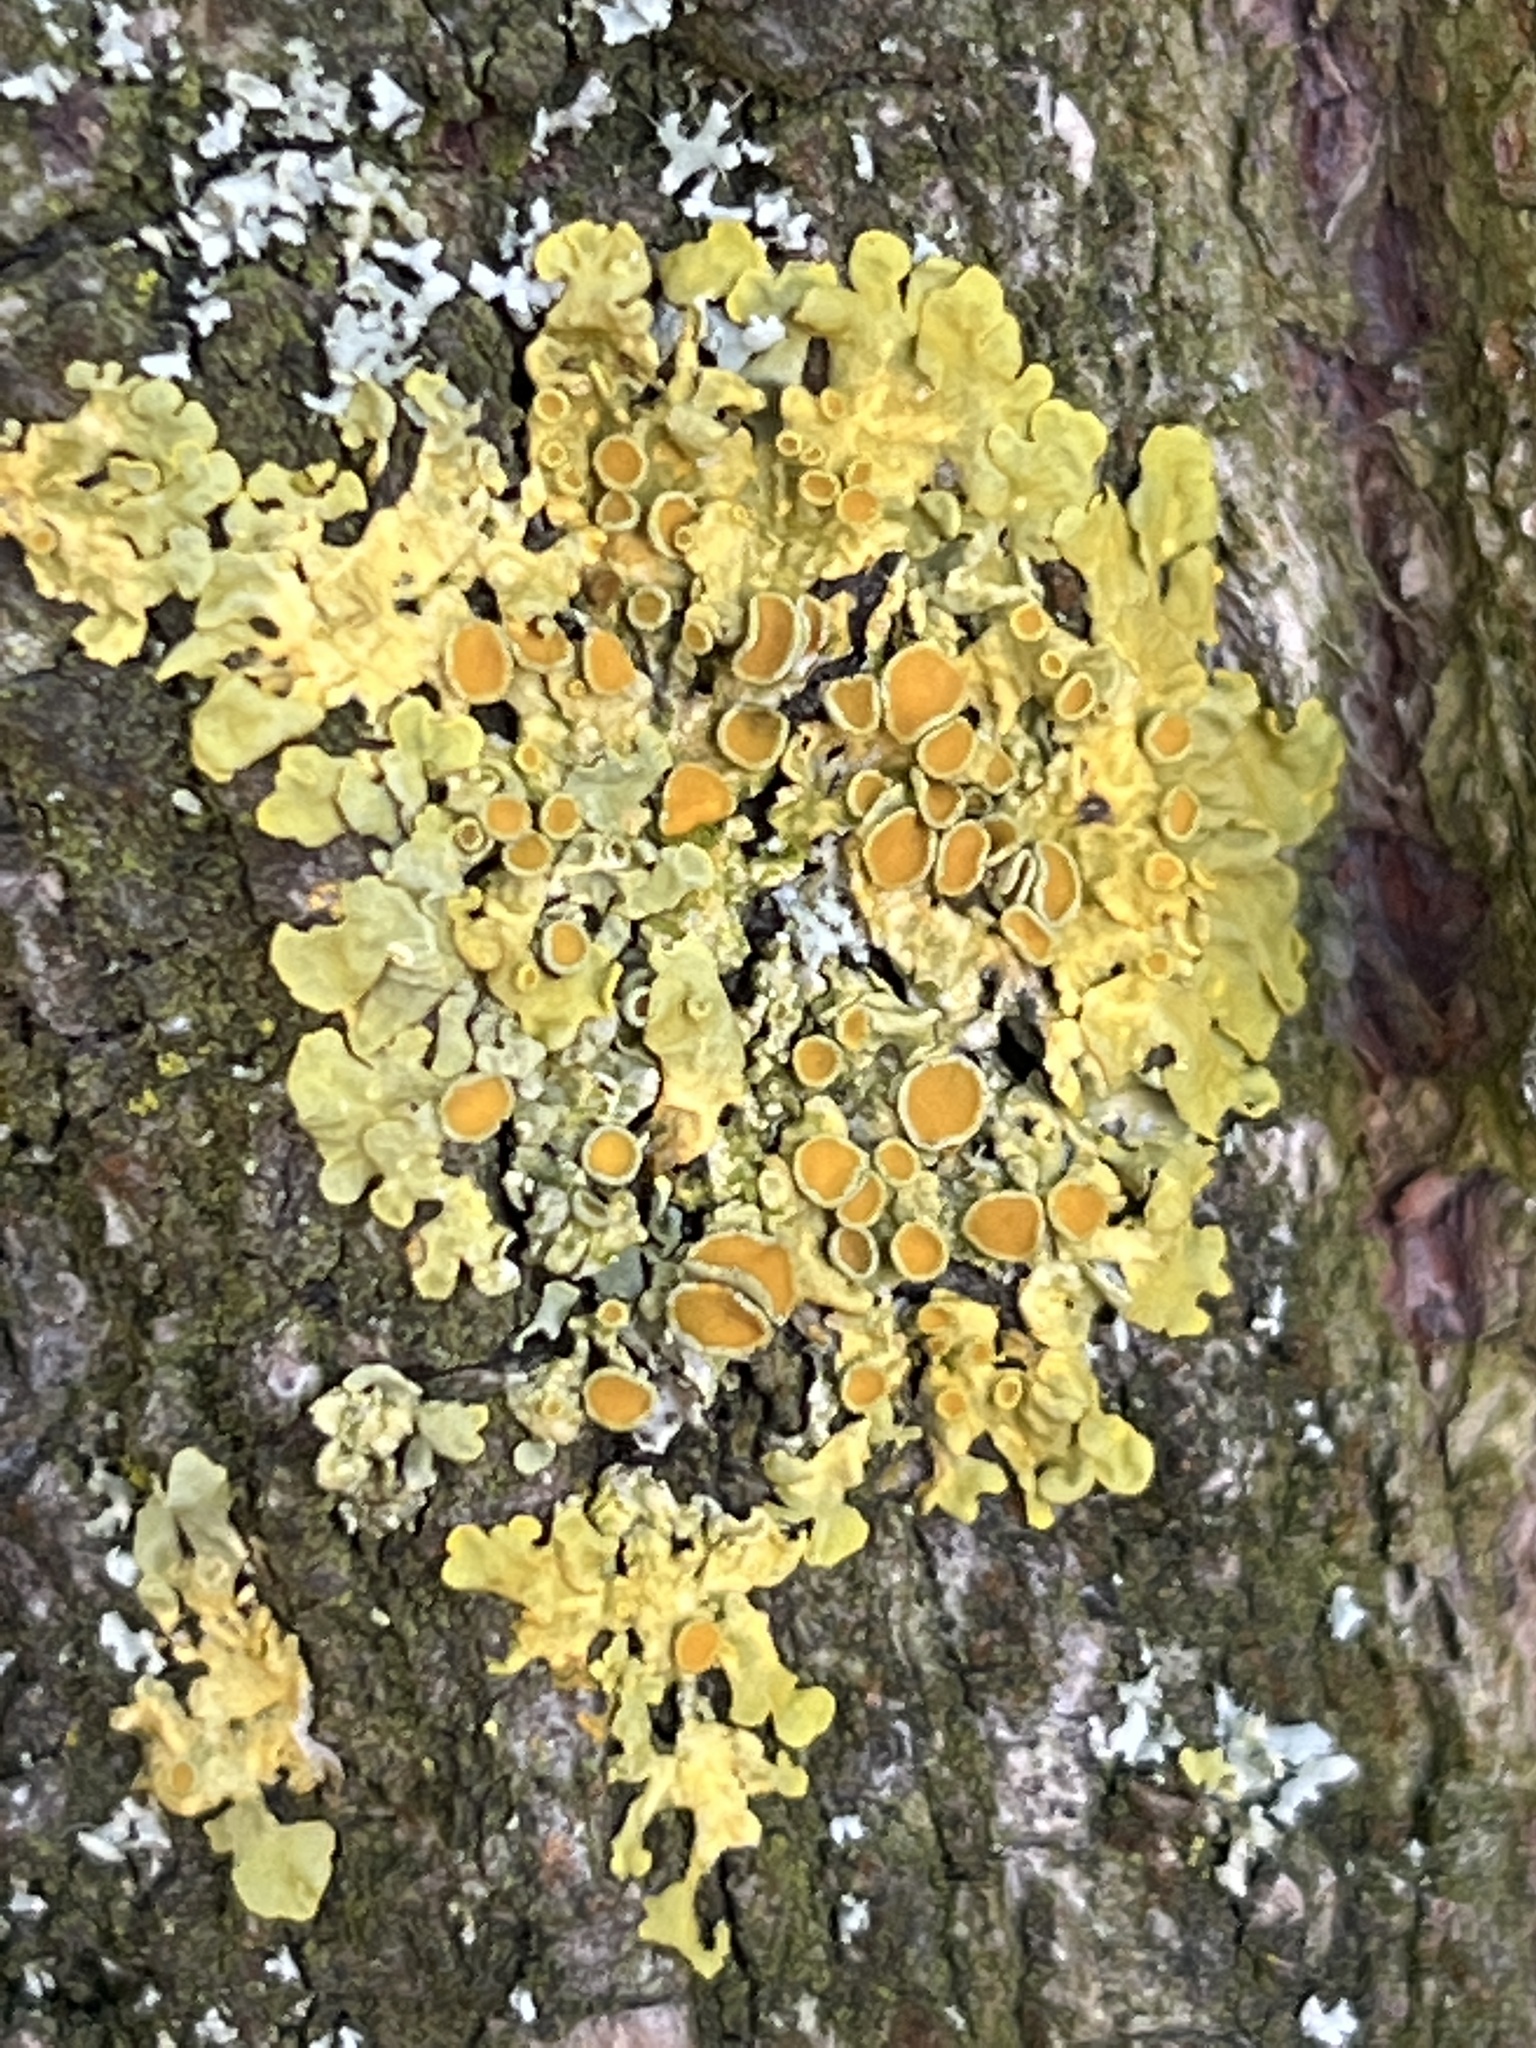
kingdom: Fungi
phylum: Ascomycota
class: Lecanoromycetes
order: Teloschistales
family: Teloschistaceae
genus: Xanthoria
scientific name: Xanthoria parietina
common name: Common orange lichen
